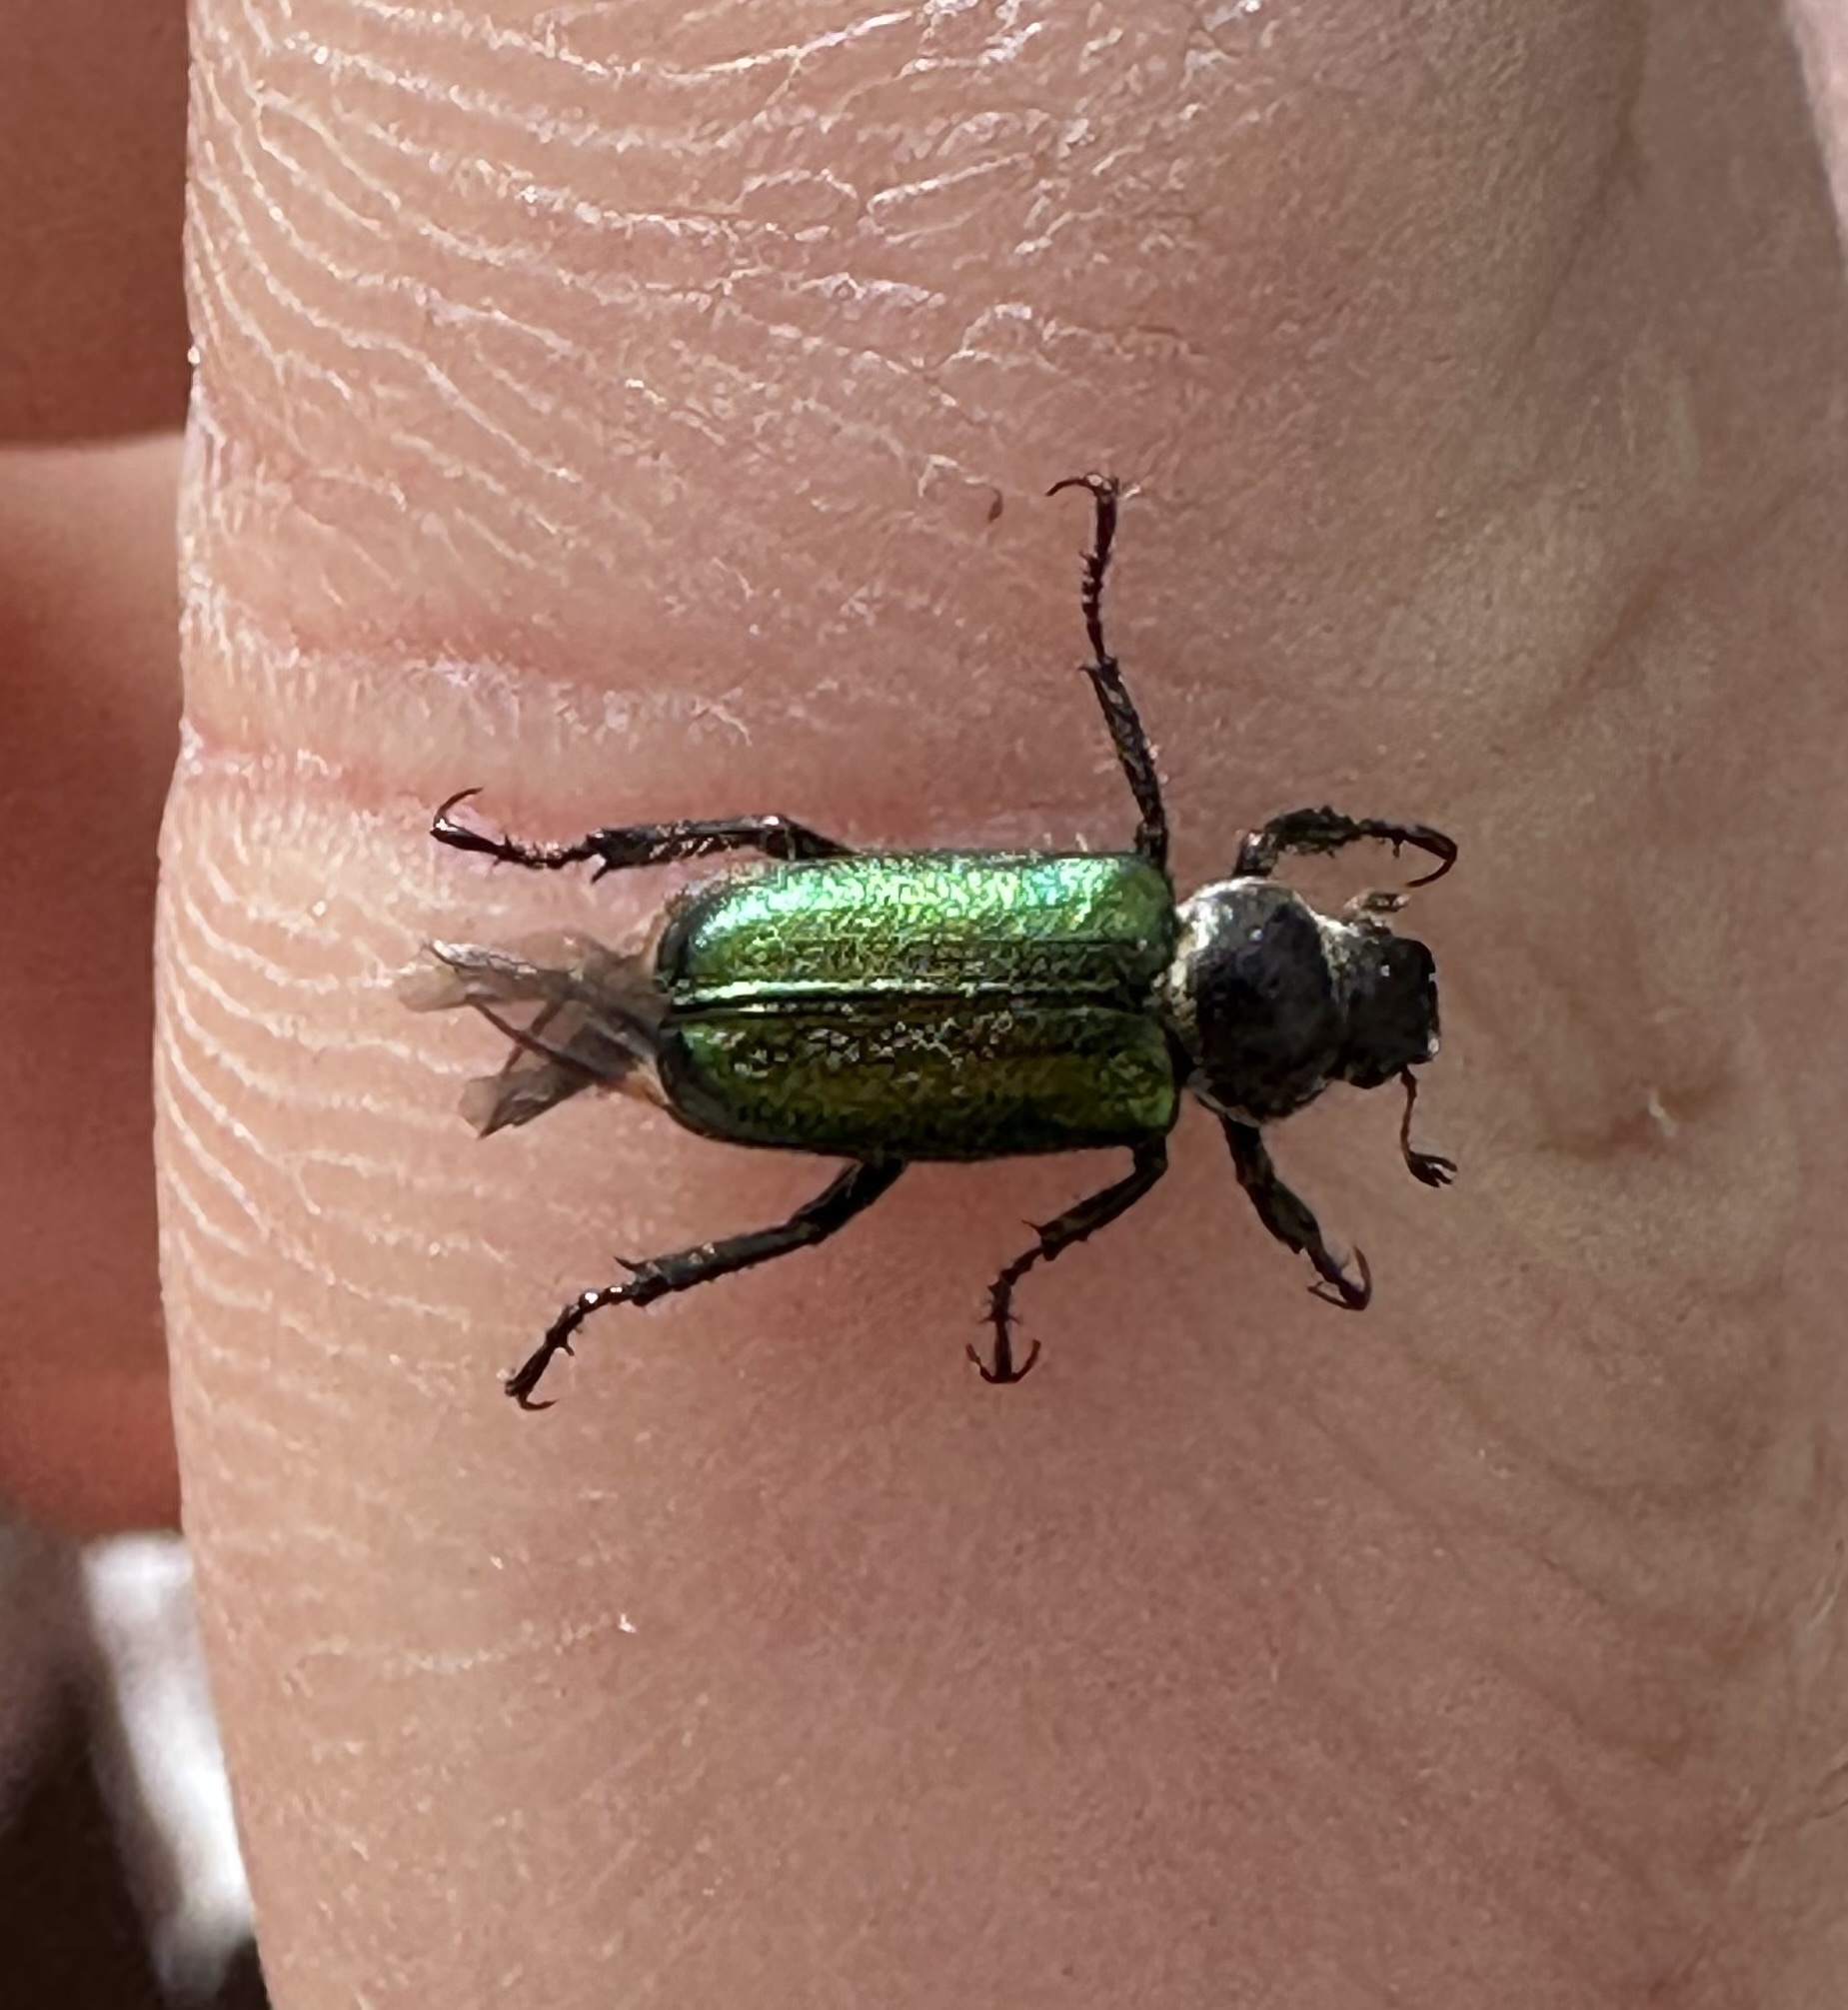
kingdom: Animalia
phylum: Arthropoda
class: Insecta
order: Coleoptera
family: Scarabaeidae
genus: Dichelonyx
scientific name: Dichelonyx backii
